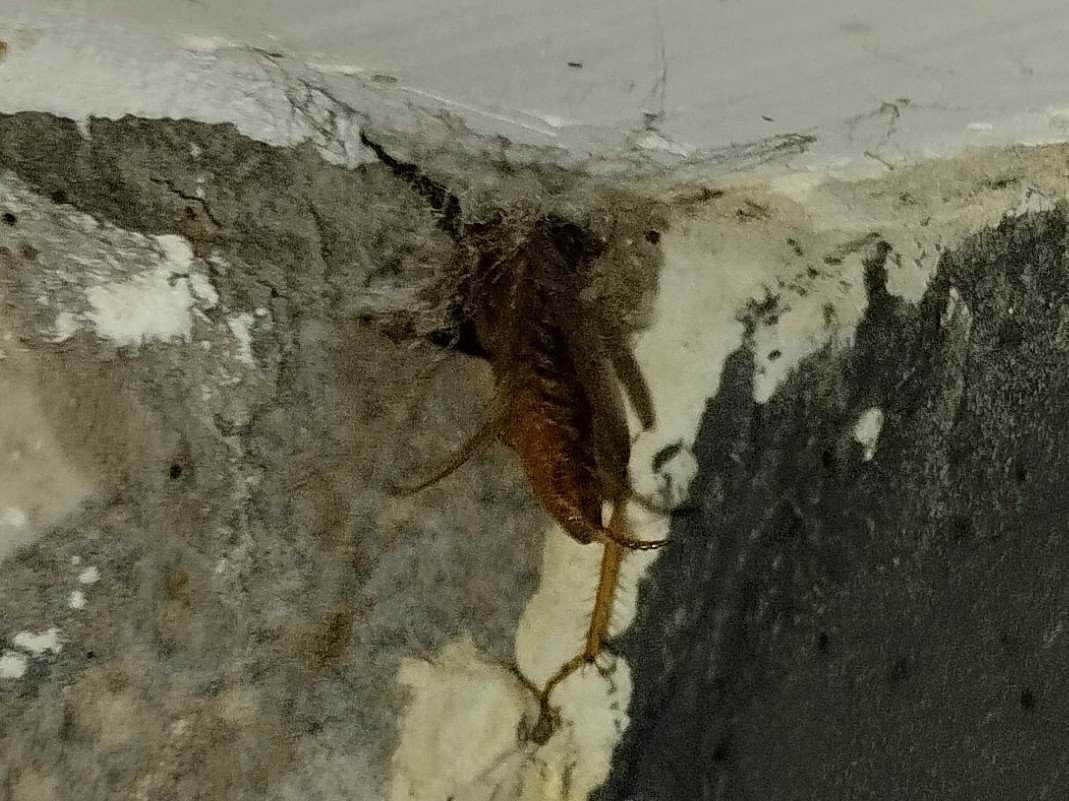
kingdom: Animalia
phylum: Arthropoda
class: Insecta
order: Blattodea
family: Ectobiidae
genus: Blattella
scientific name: Blattella germanica
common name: German cockroach
